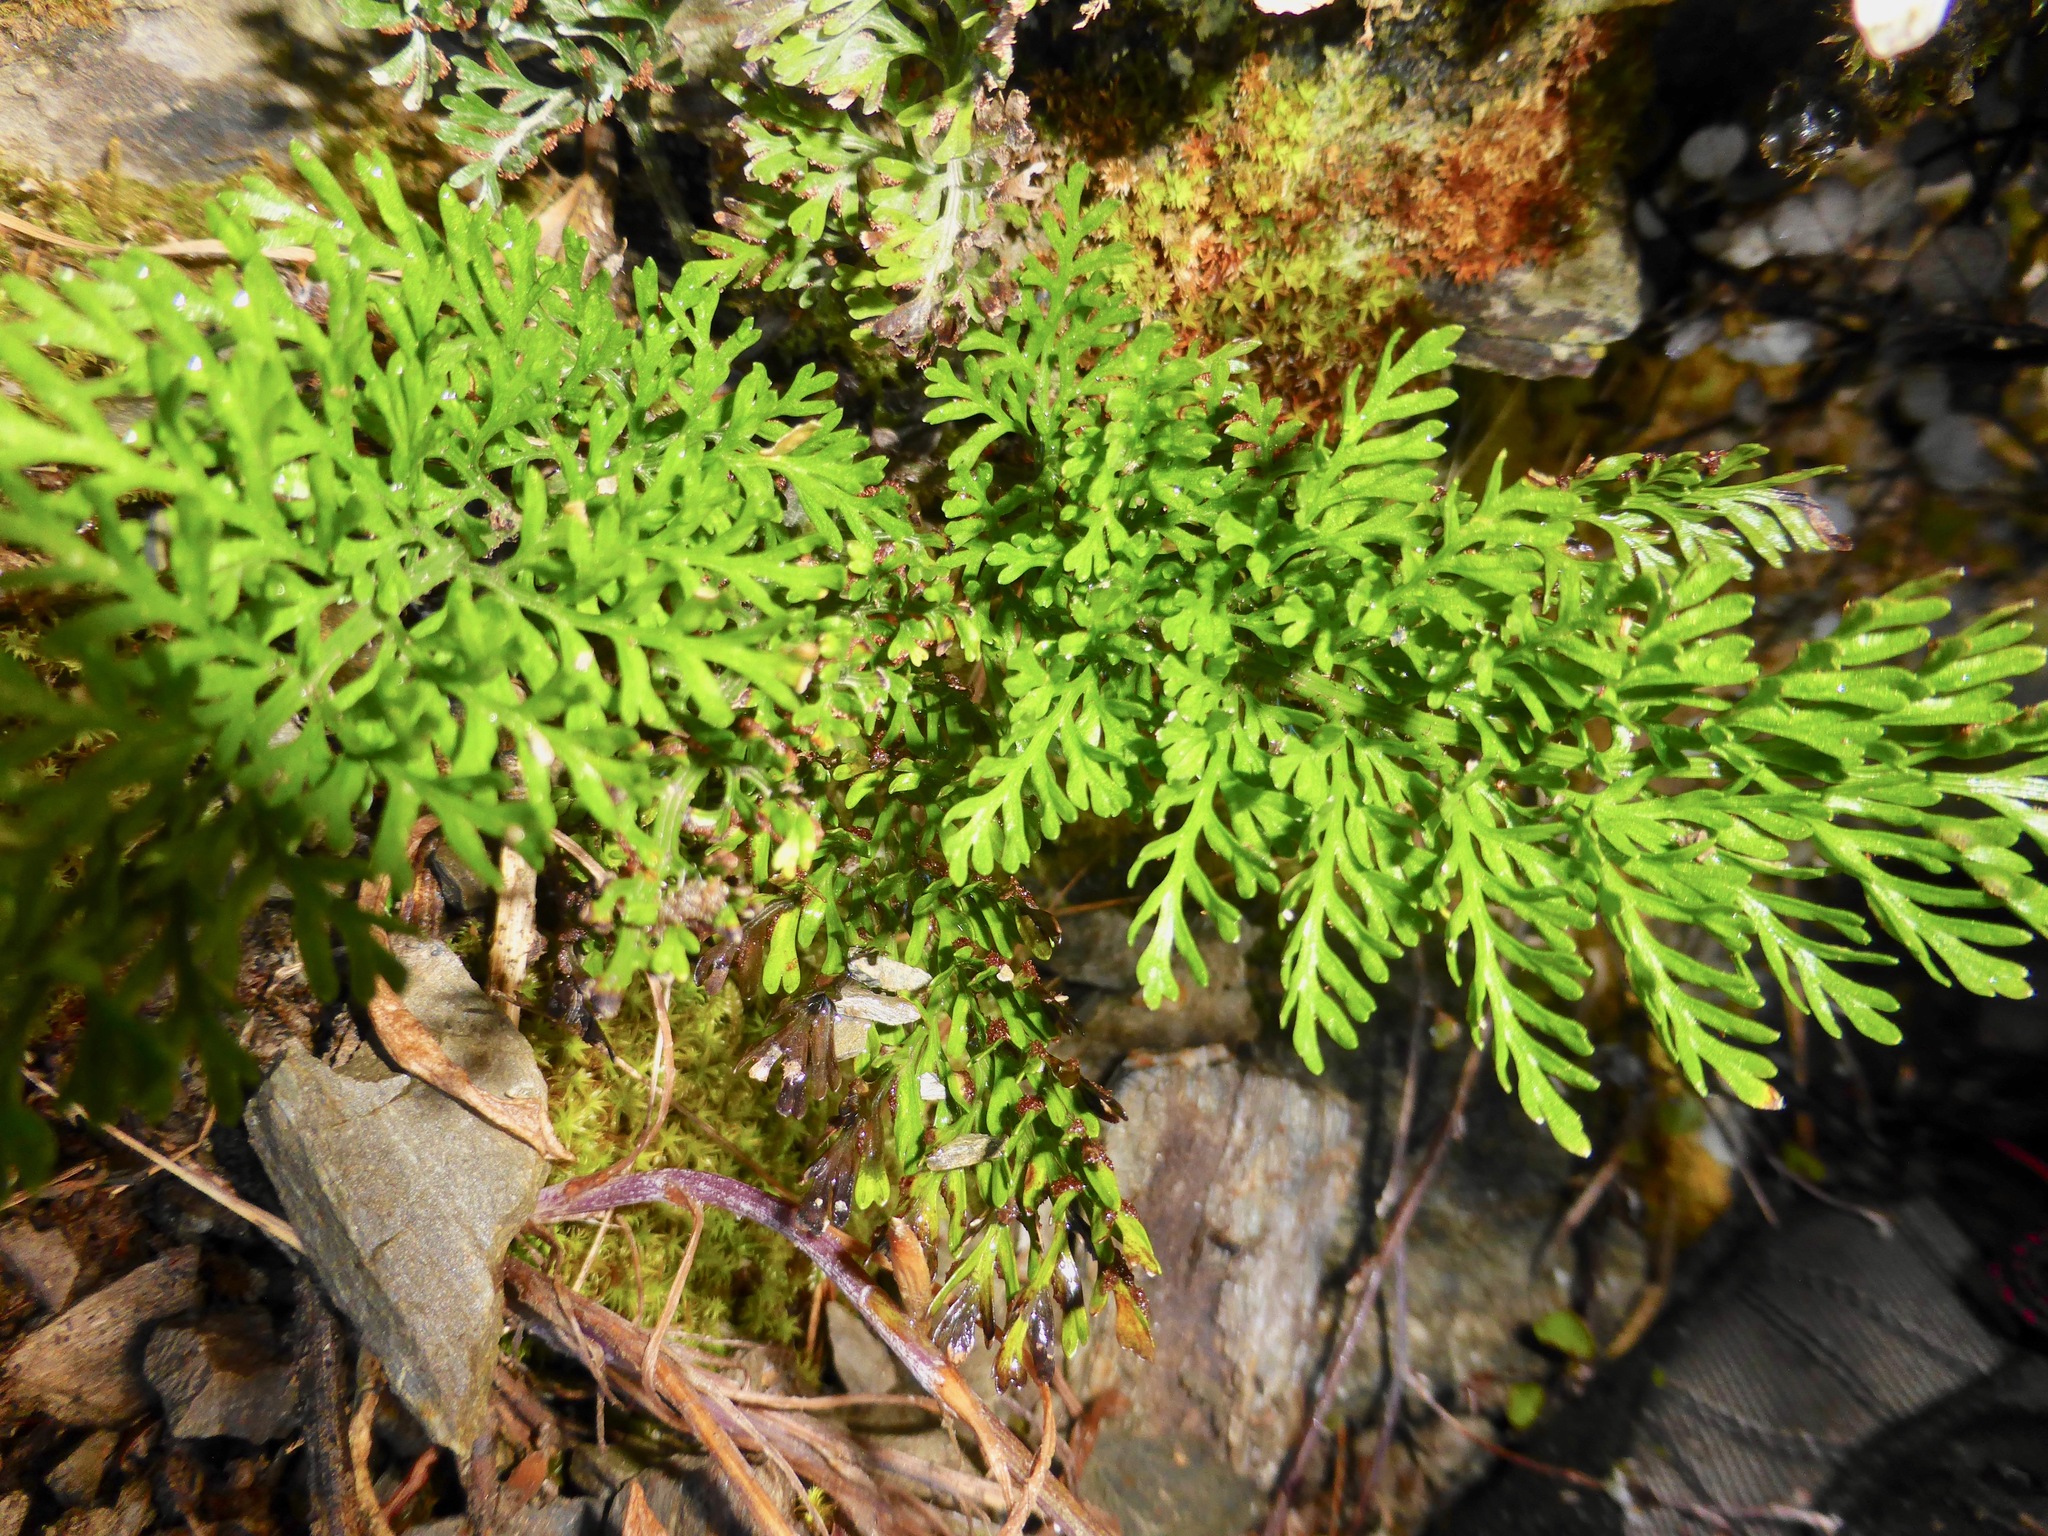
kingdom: Plantae
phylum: Tracheophyta
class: Polypodiopsida
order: Polypodiales
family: Aspleniaceae
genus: Asplenium
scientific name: Asplenium richardii
